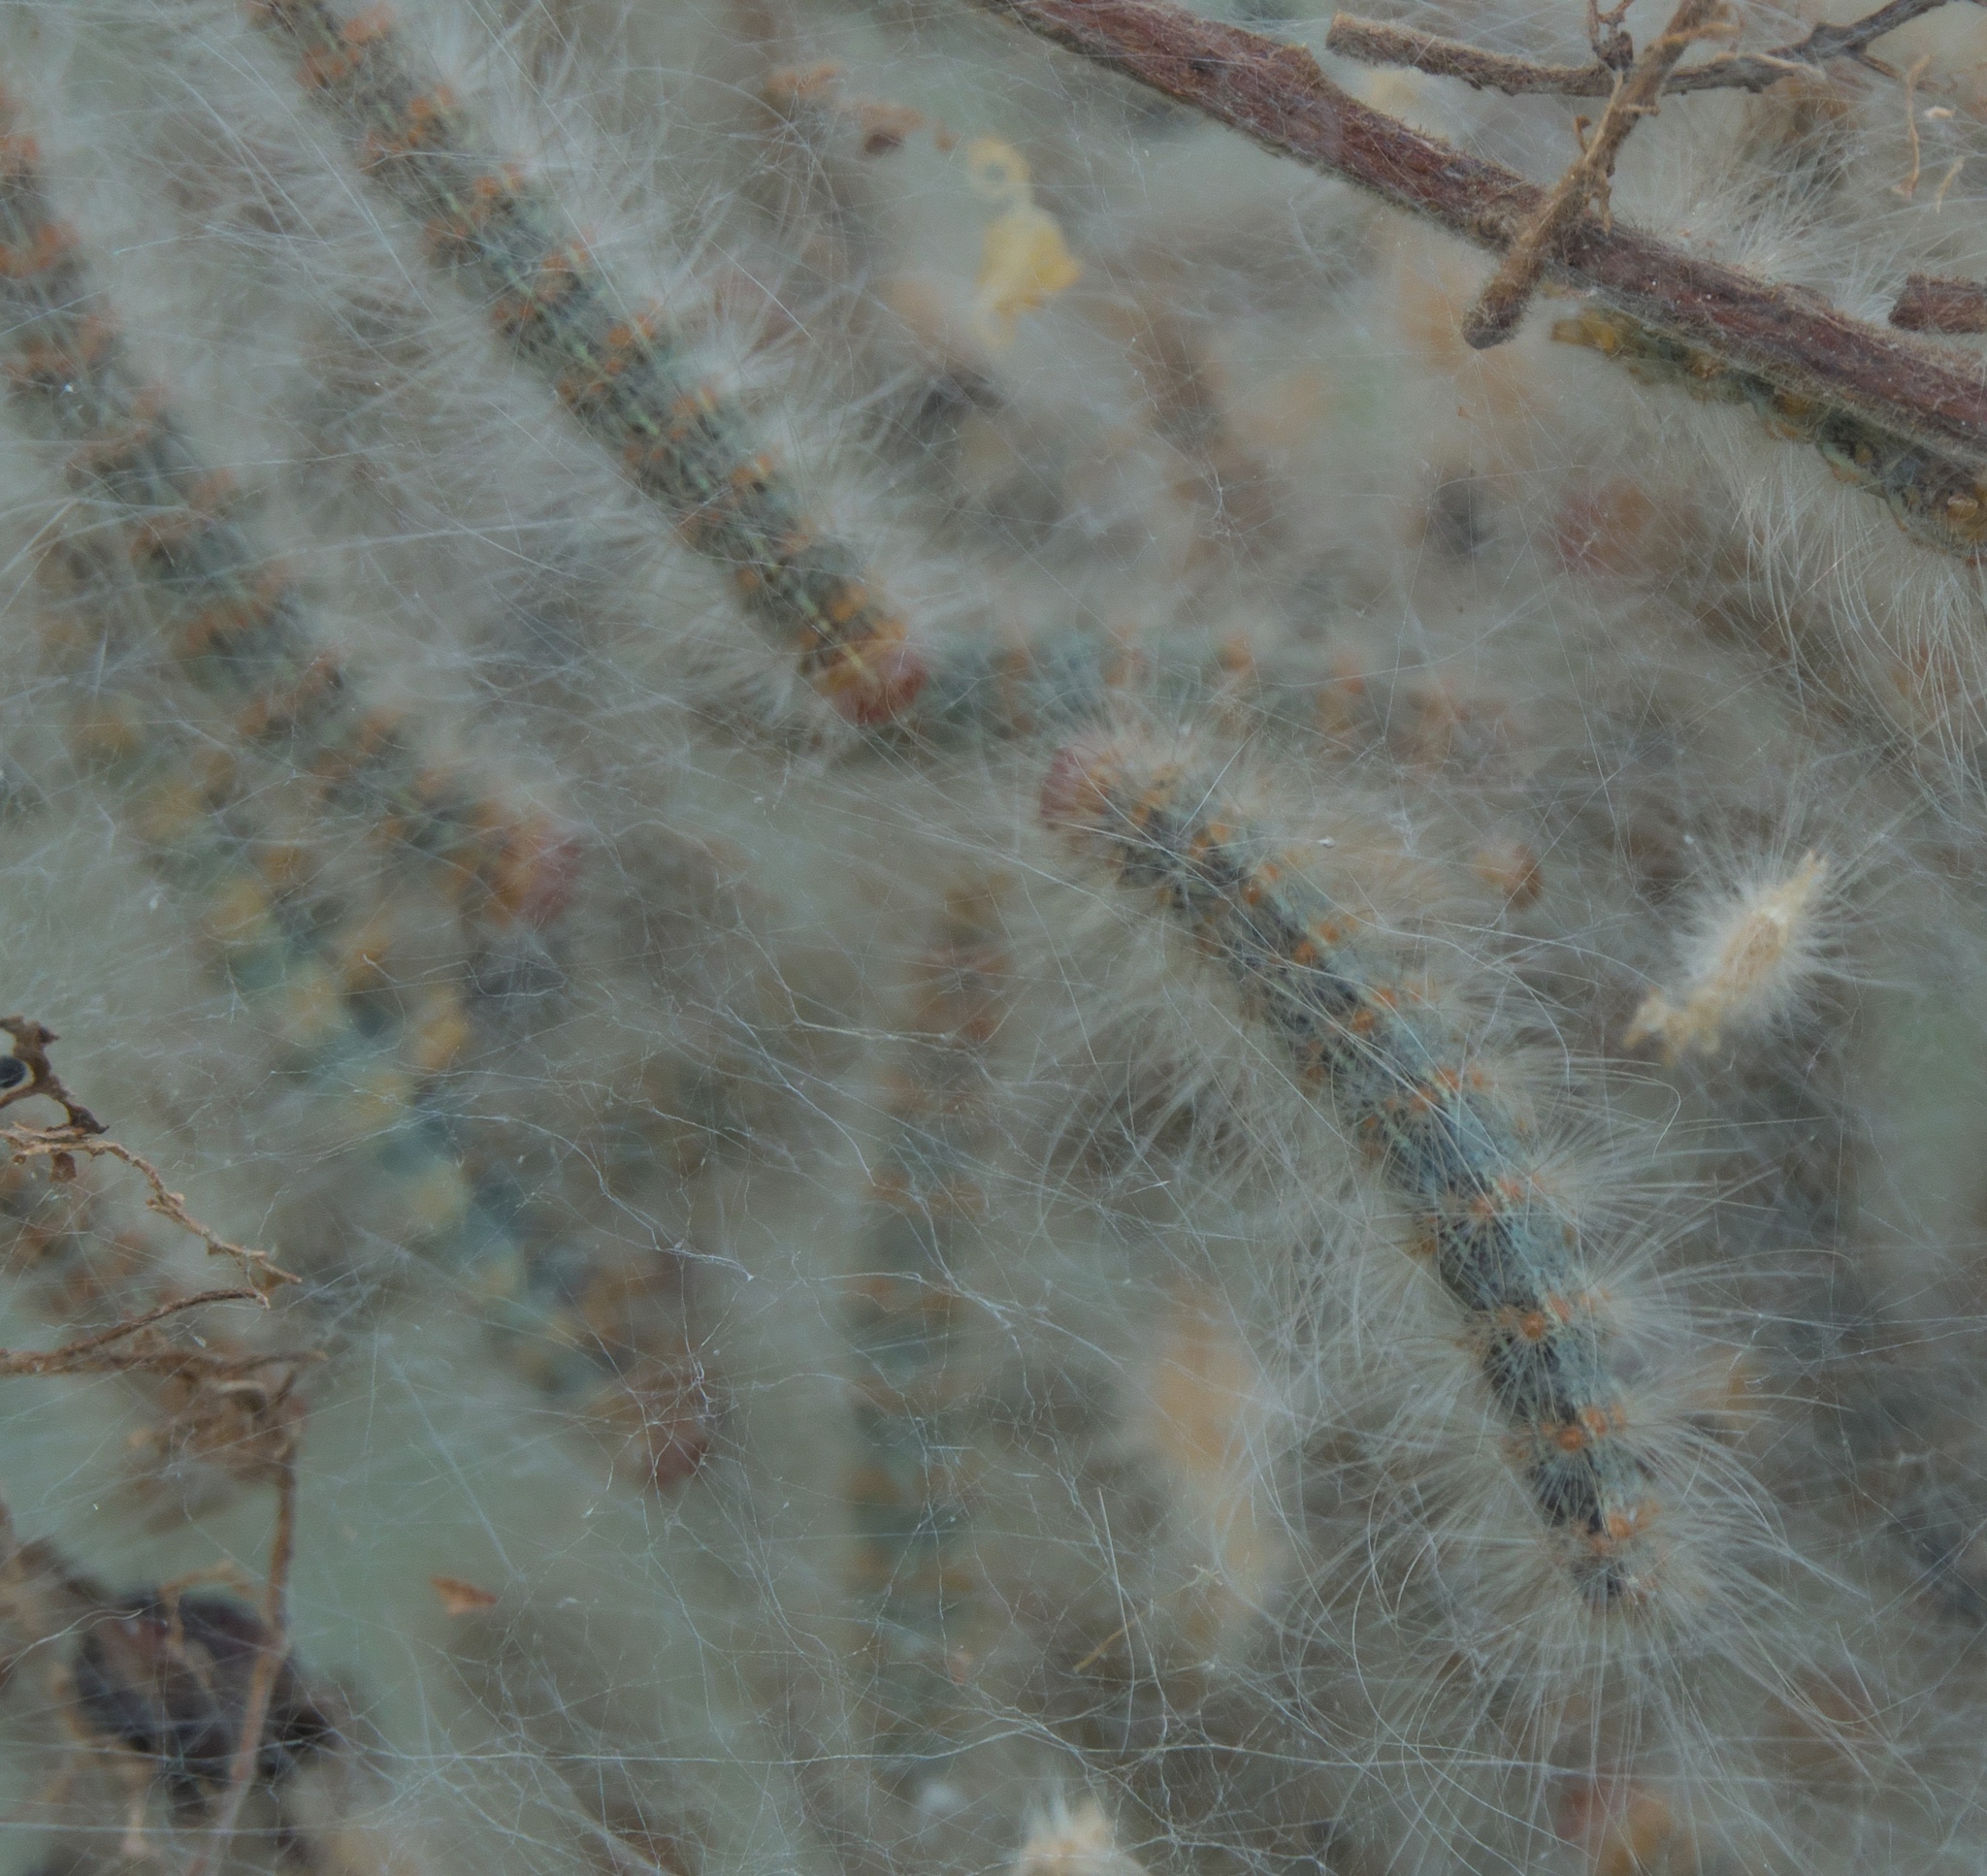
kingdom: Animalia
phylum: Arthropoda
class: Insecta
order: Lepidoptera
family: Erebidae
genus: Hyphantria
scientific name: Hyphantria cunea
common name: American white moth
